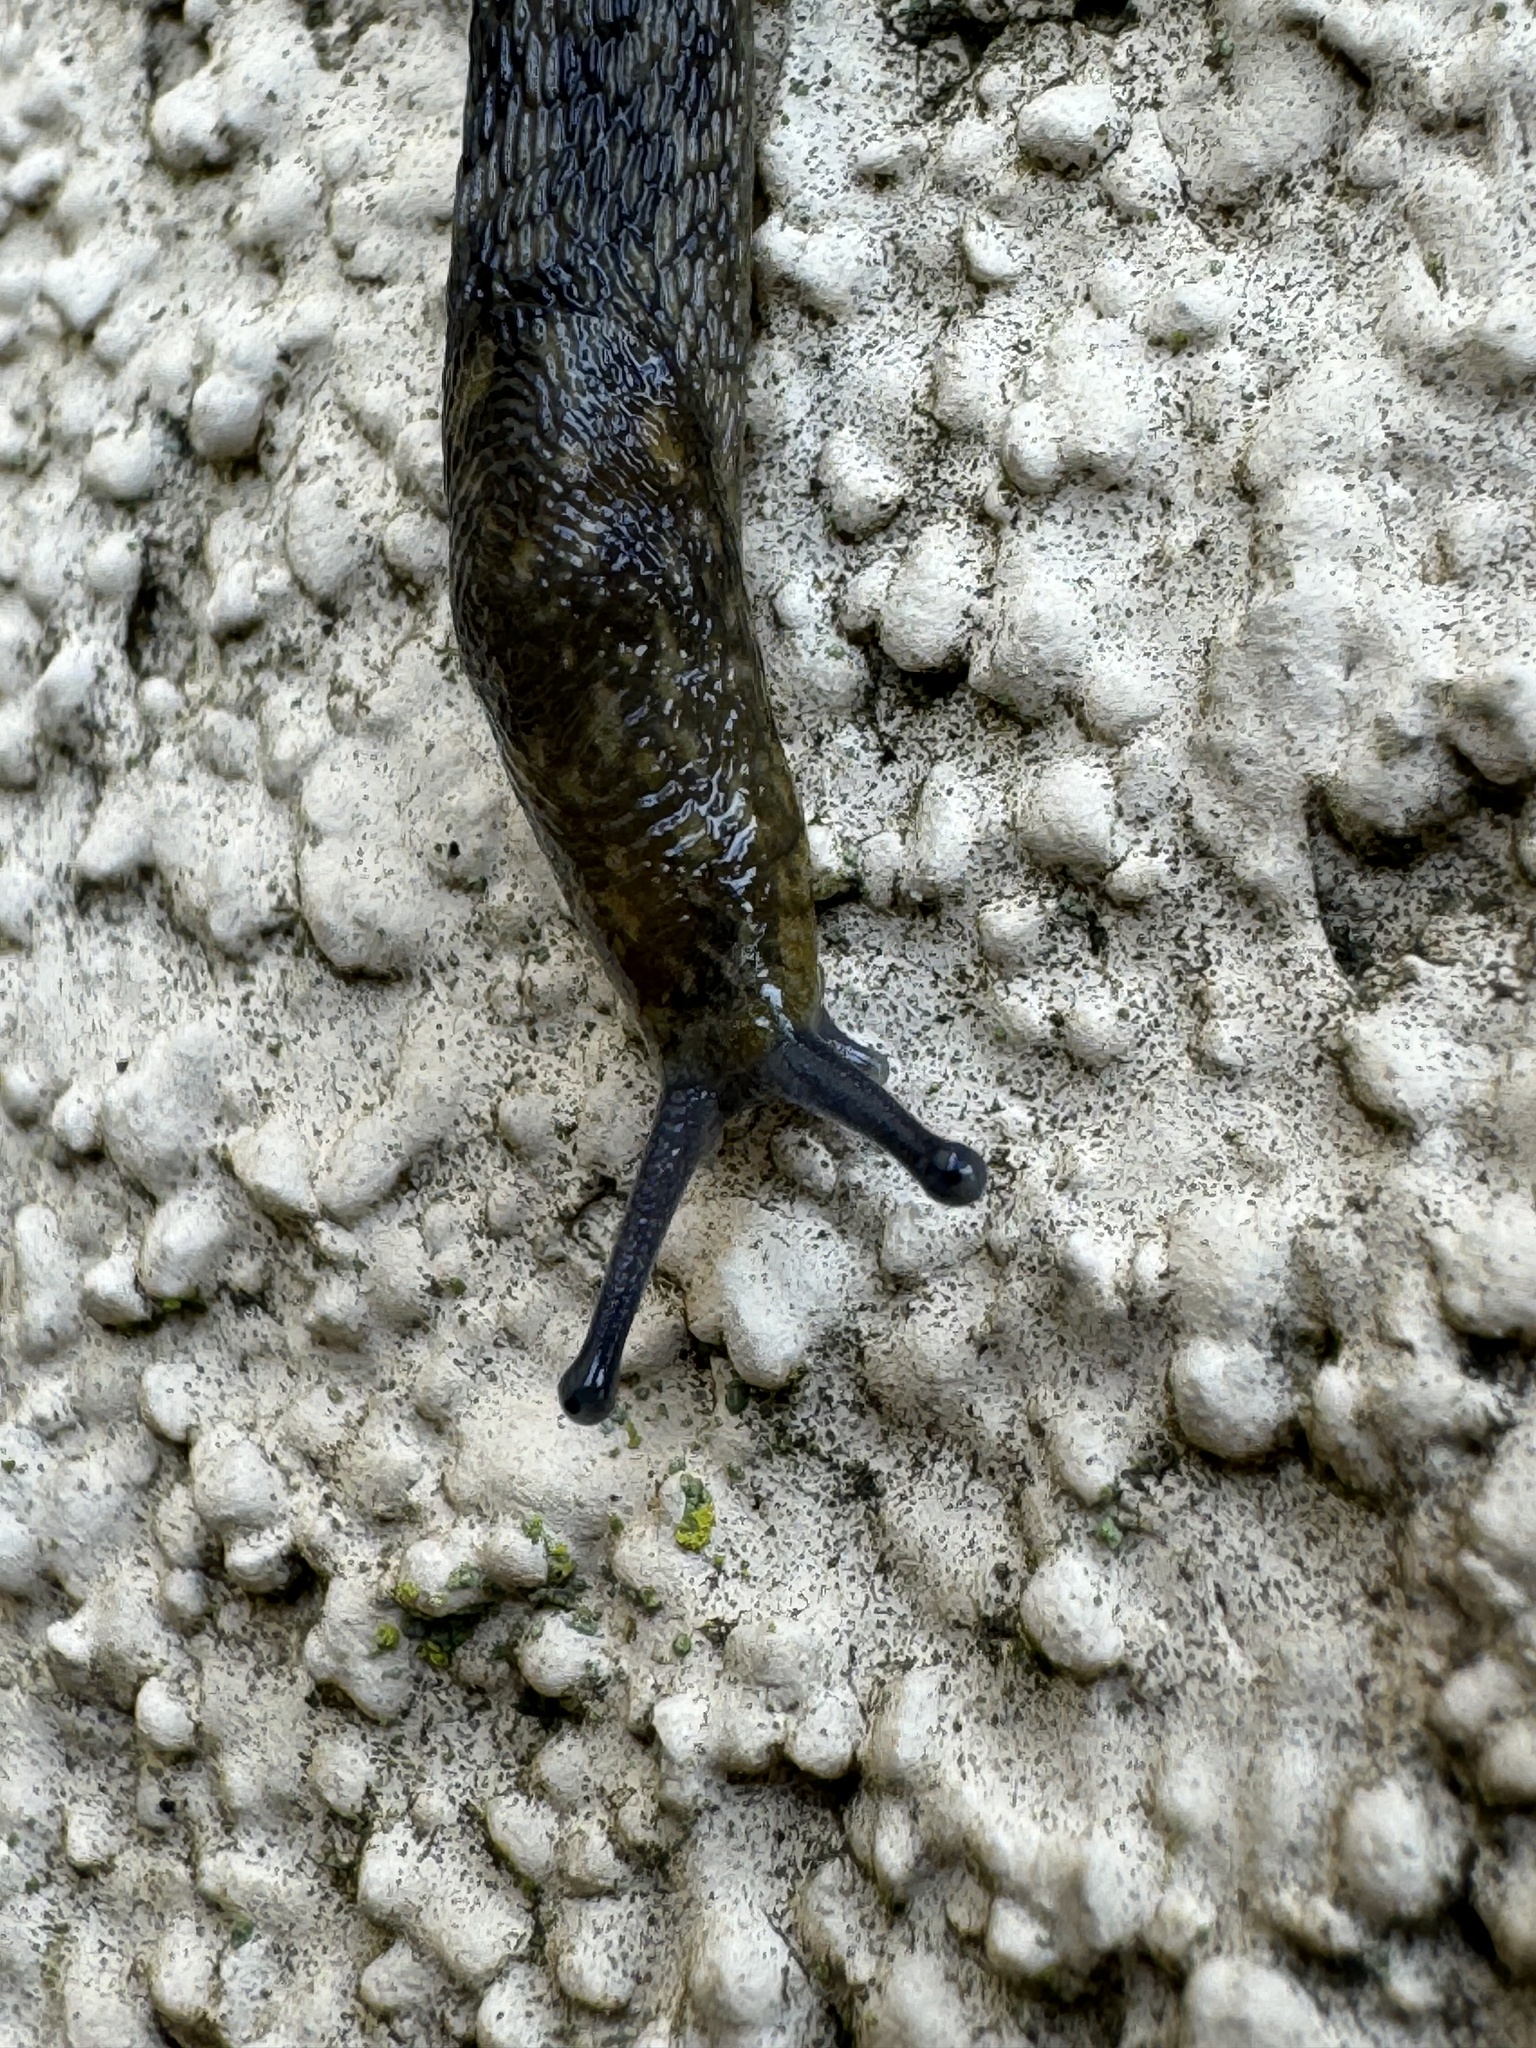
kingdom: Animalia
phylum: Mollusca
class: Gastropoda
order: Stylommatophora
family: Limacidae
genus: Limacus
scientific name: Limacus flavus
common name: Yellow gardenslug
